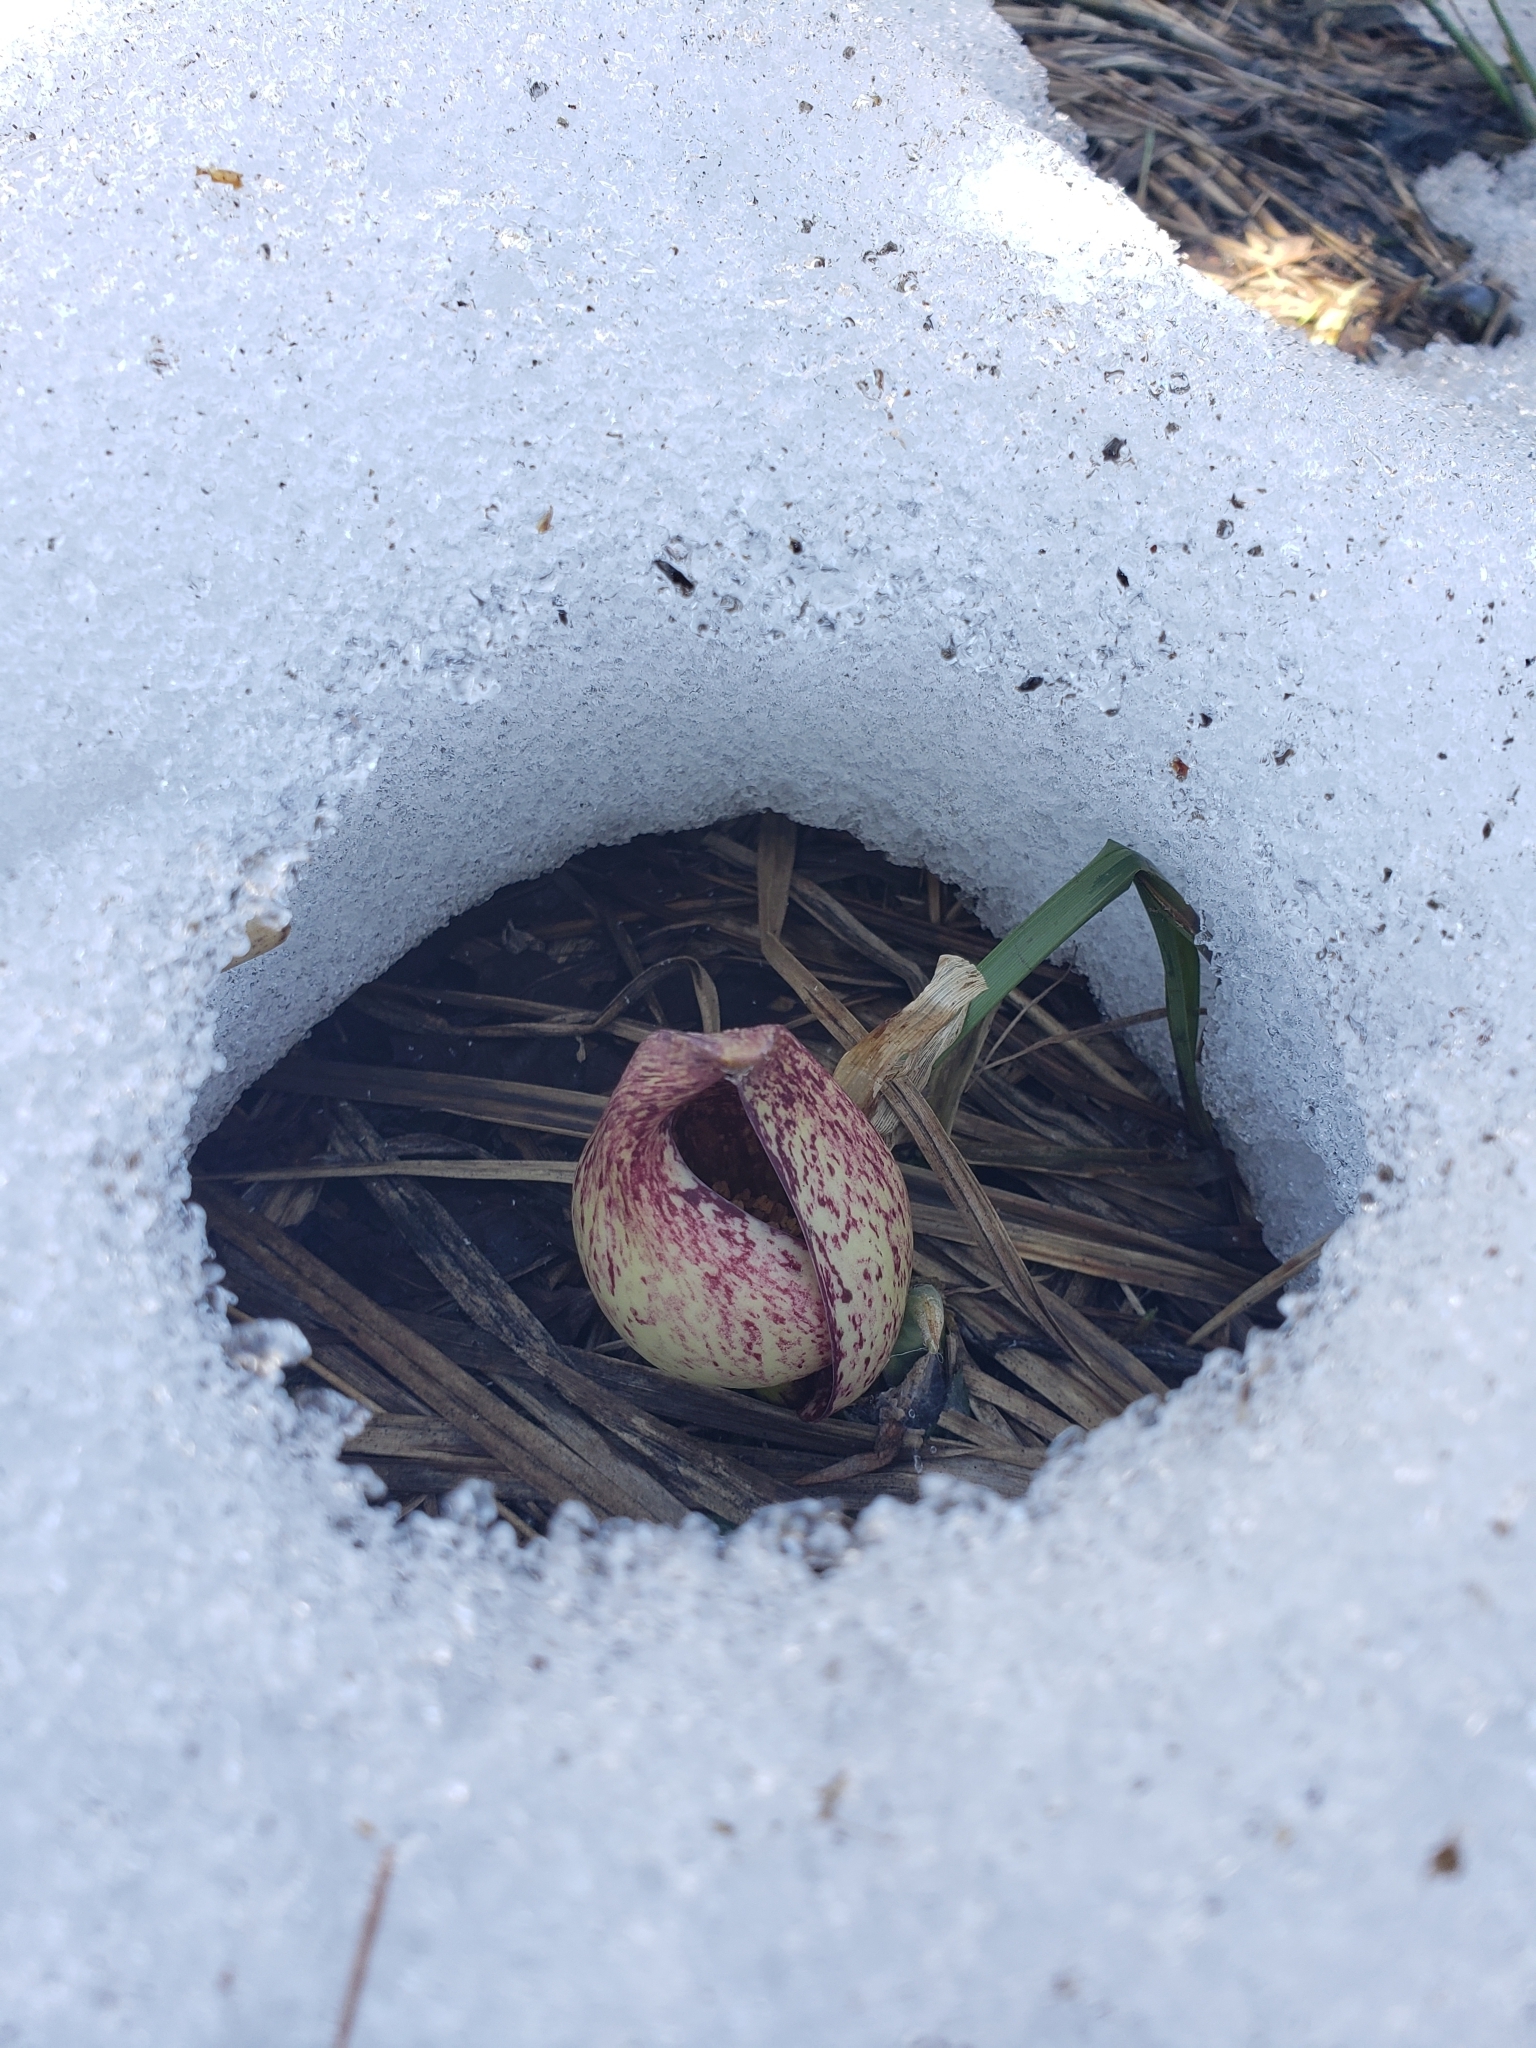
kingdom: Plantae
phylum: Tracheophyta
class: Liliopsida
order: Alismatales
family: Araceae
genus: Symplocarpus
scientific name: Symplocarpus foetidus
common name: Eastern skunk cabbage
